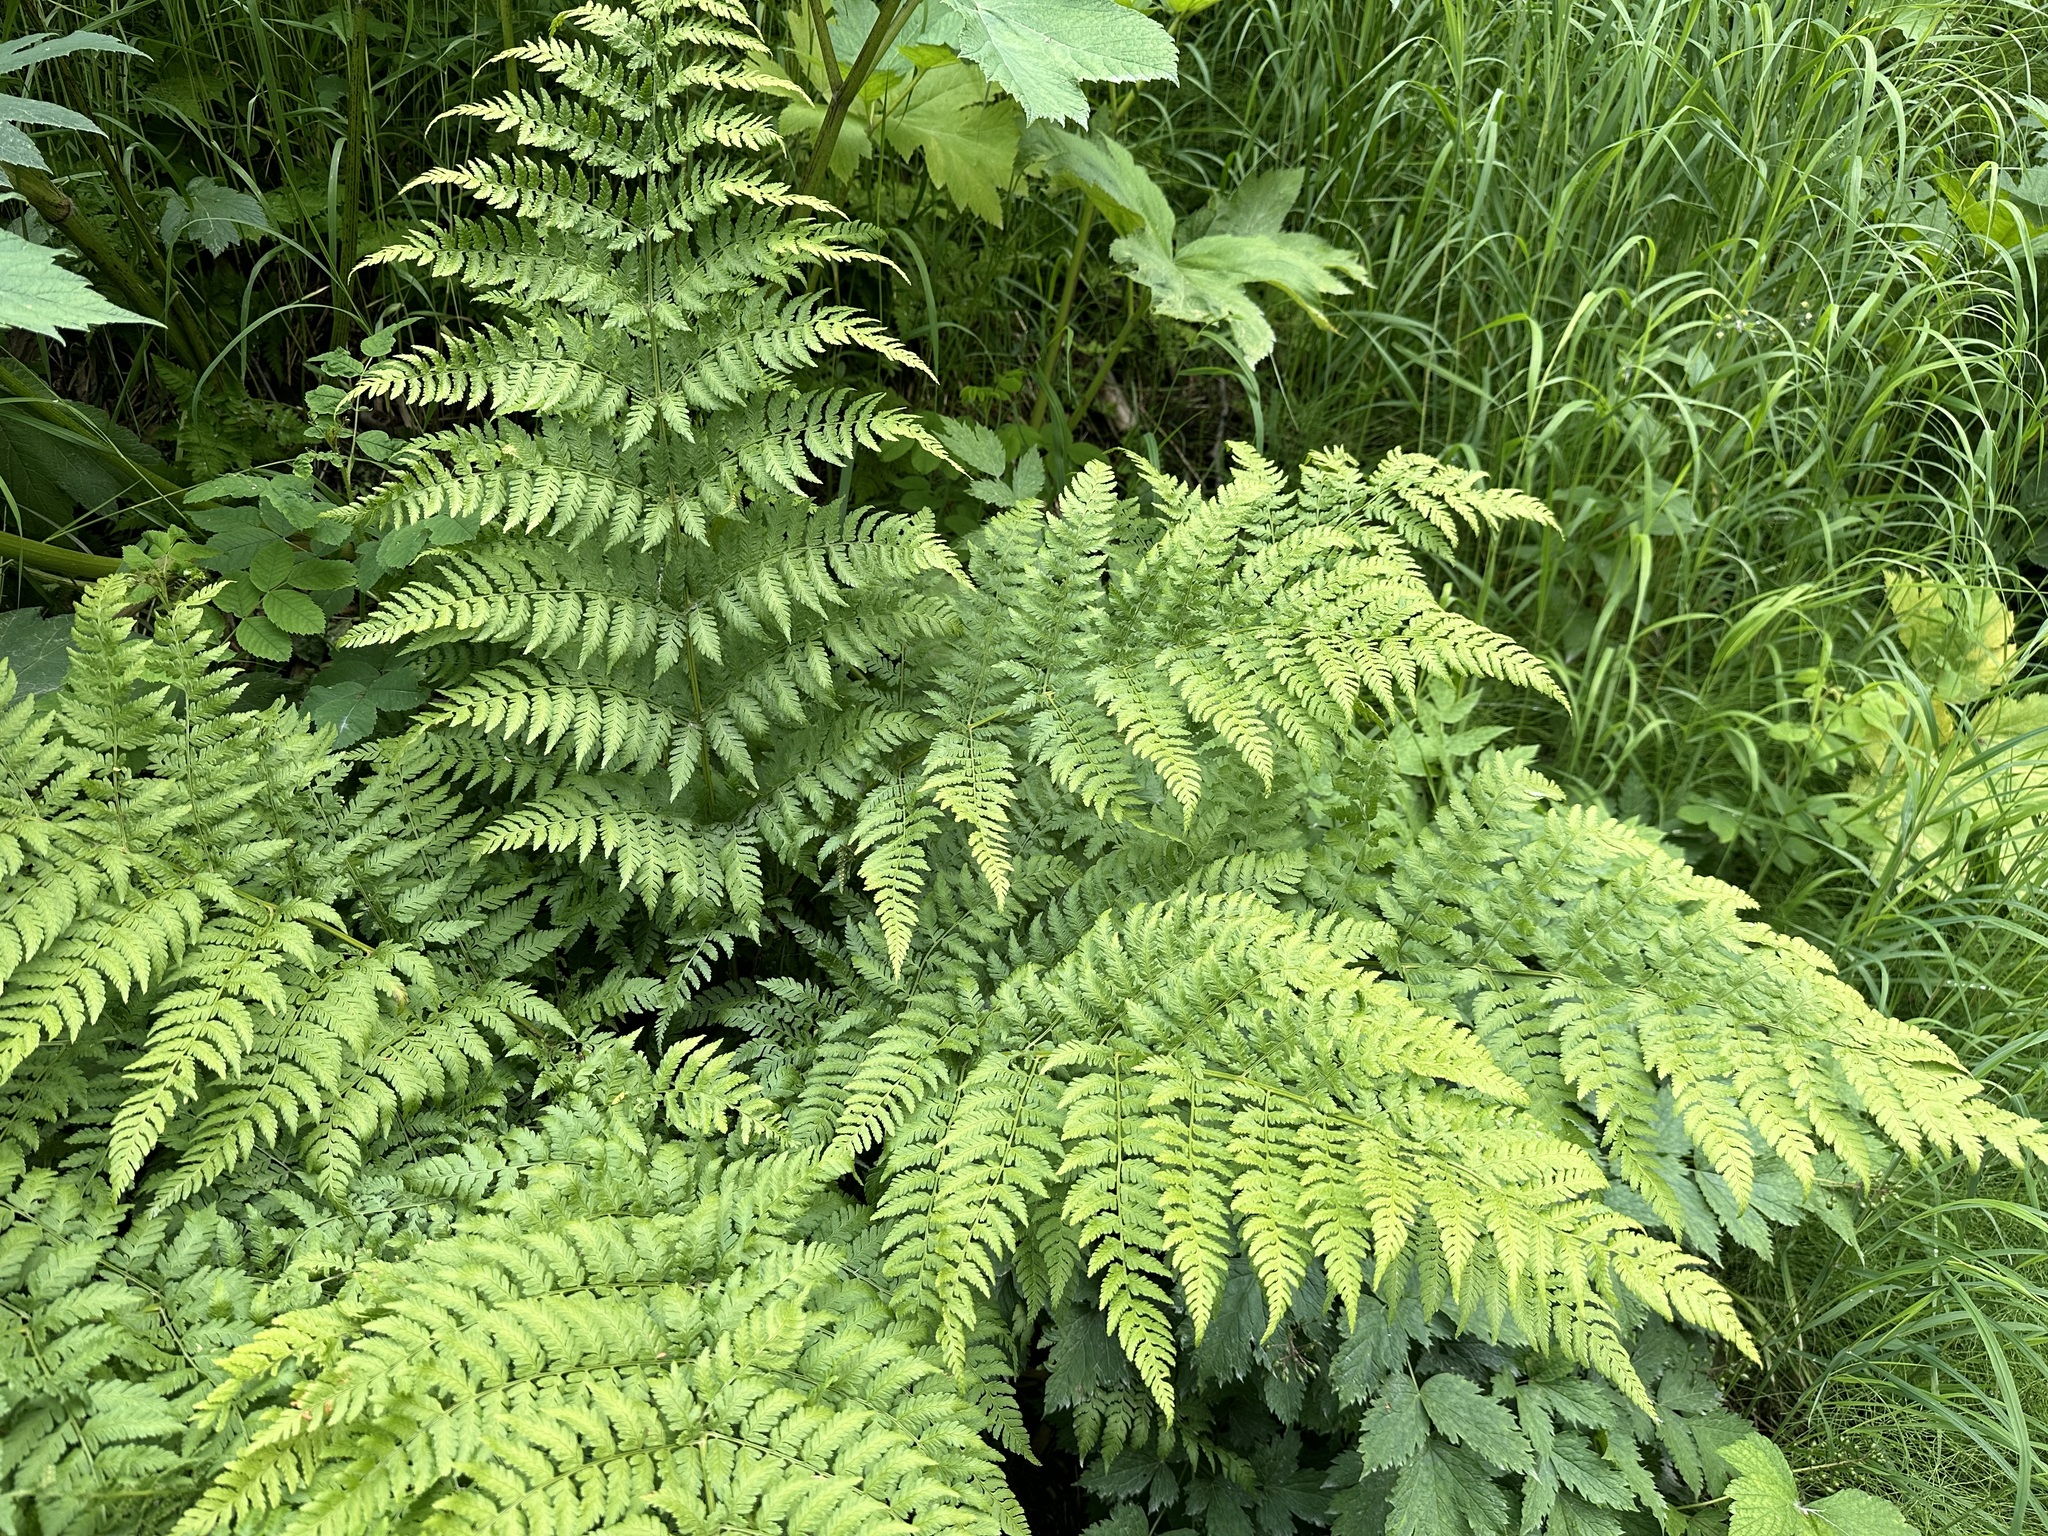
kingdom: Plantae
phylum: Tracheophyta
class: Polypodiopsida
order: Polypodiales
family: Dryopteridaceae
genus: Dryopteris
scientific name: Dryopteris expansa
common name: Northern buckler fern
